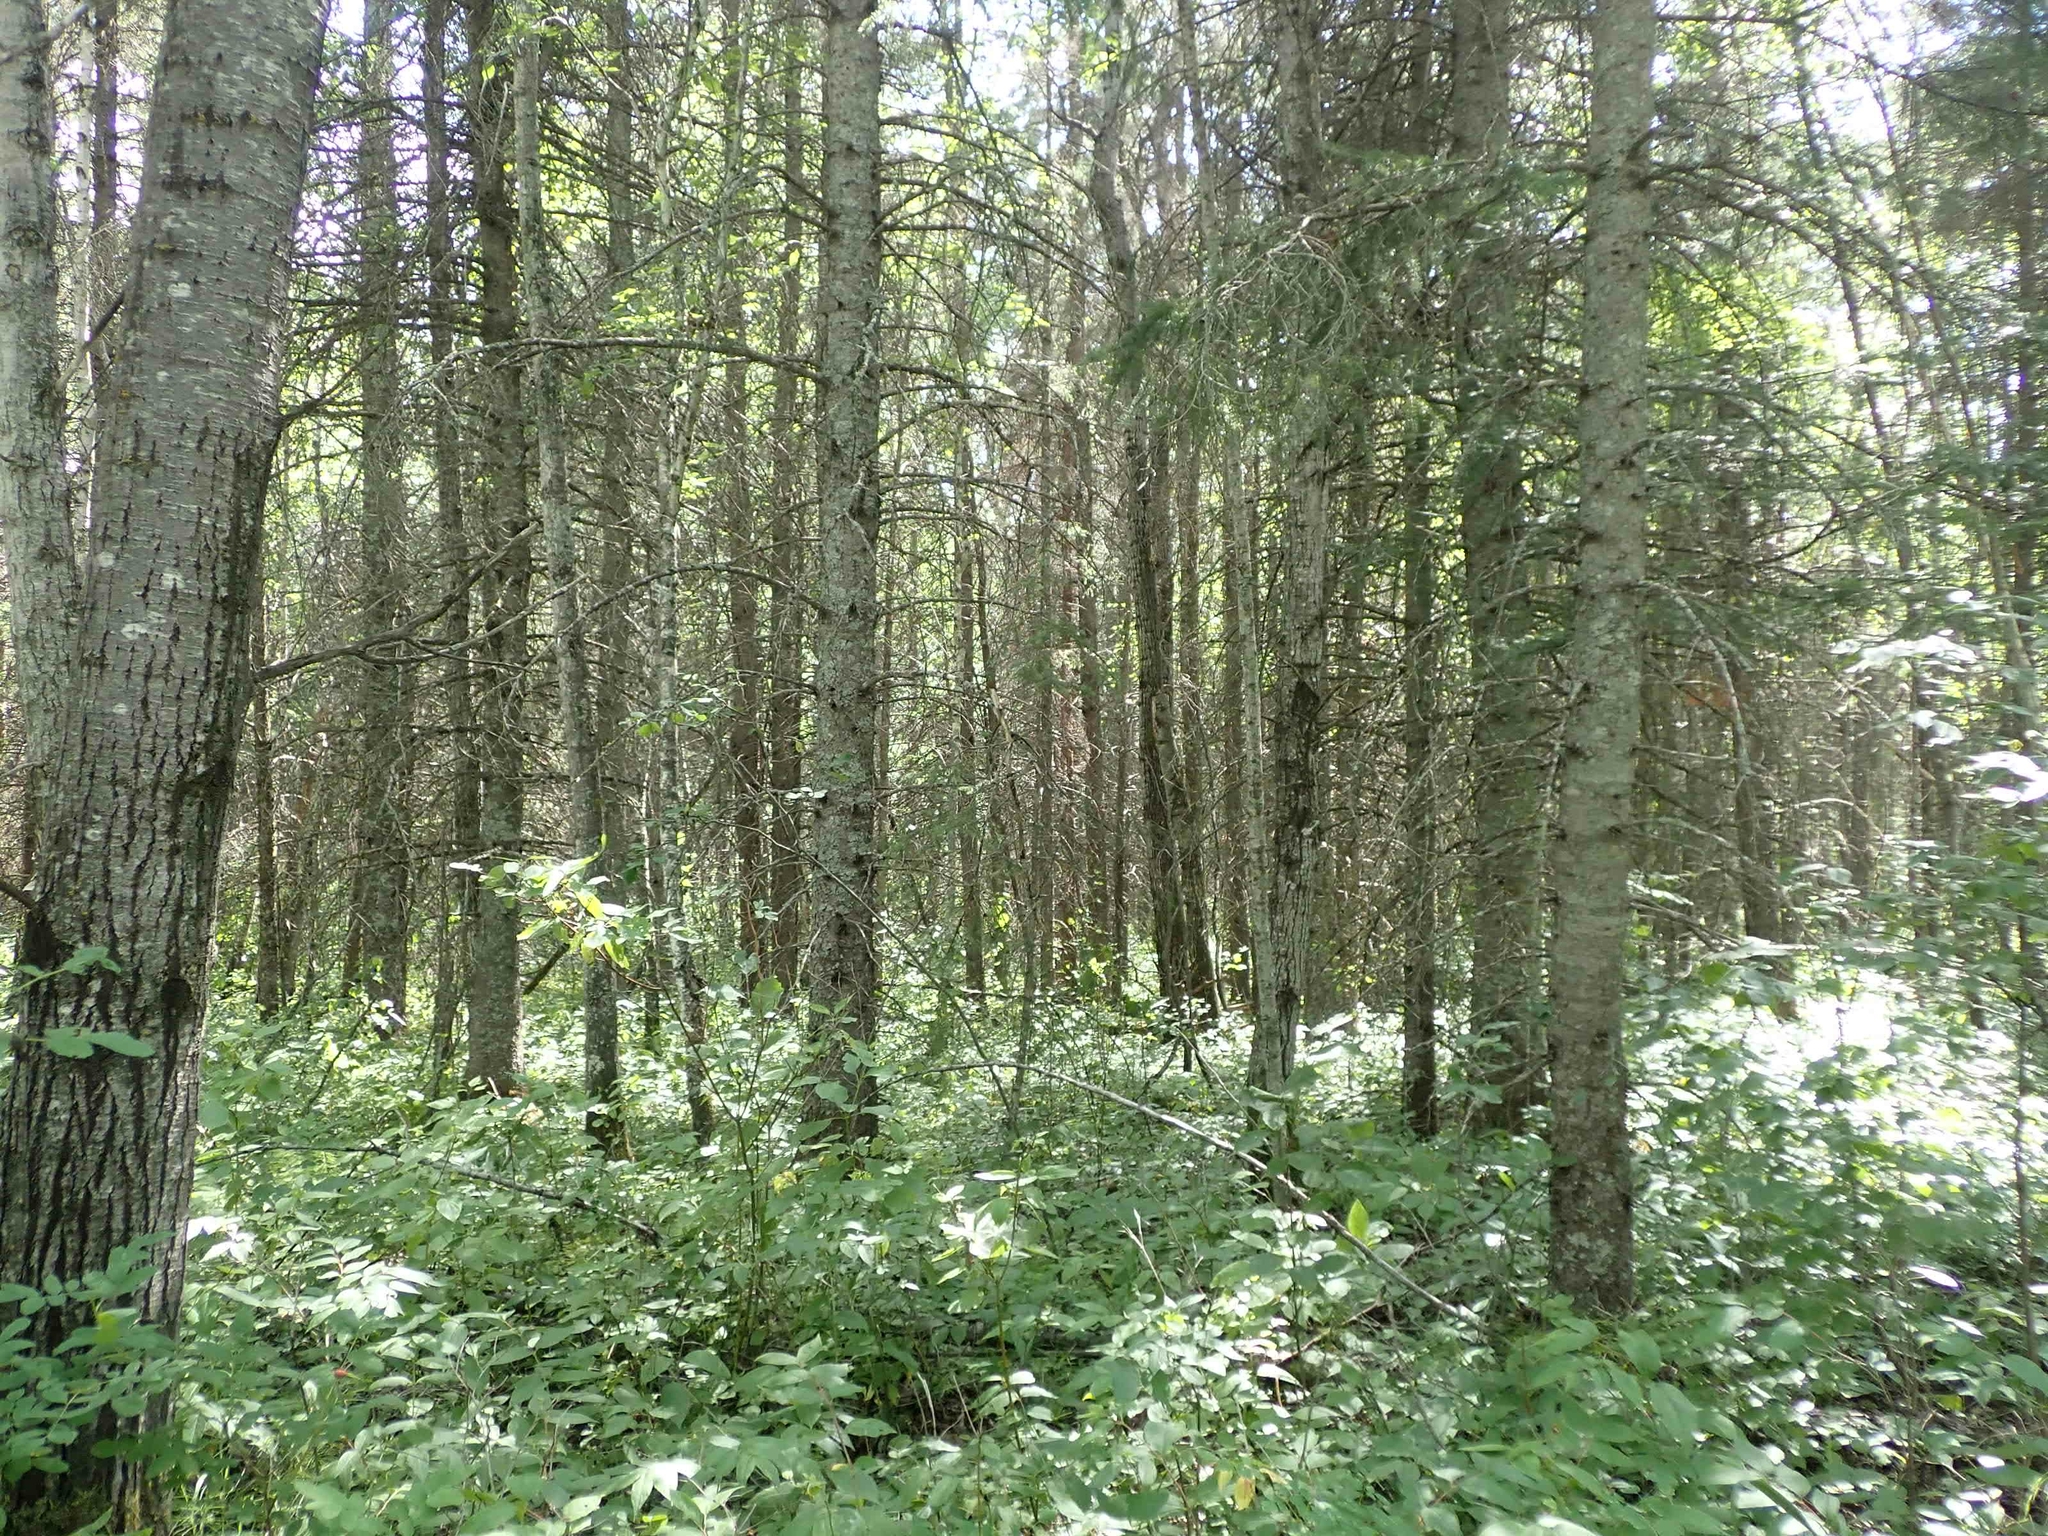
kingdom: Plantae
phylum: Tracheophyta
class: Pinopsida
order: Pinales
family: Pinaceae
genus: Abies
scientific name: Abies balsamea
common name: Balsam fir
